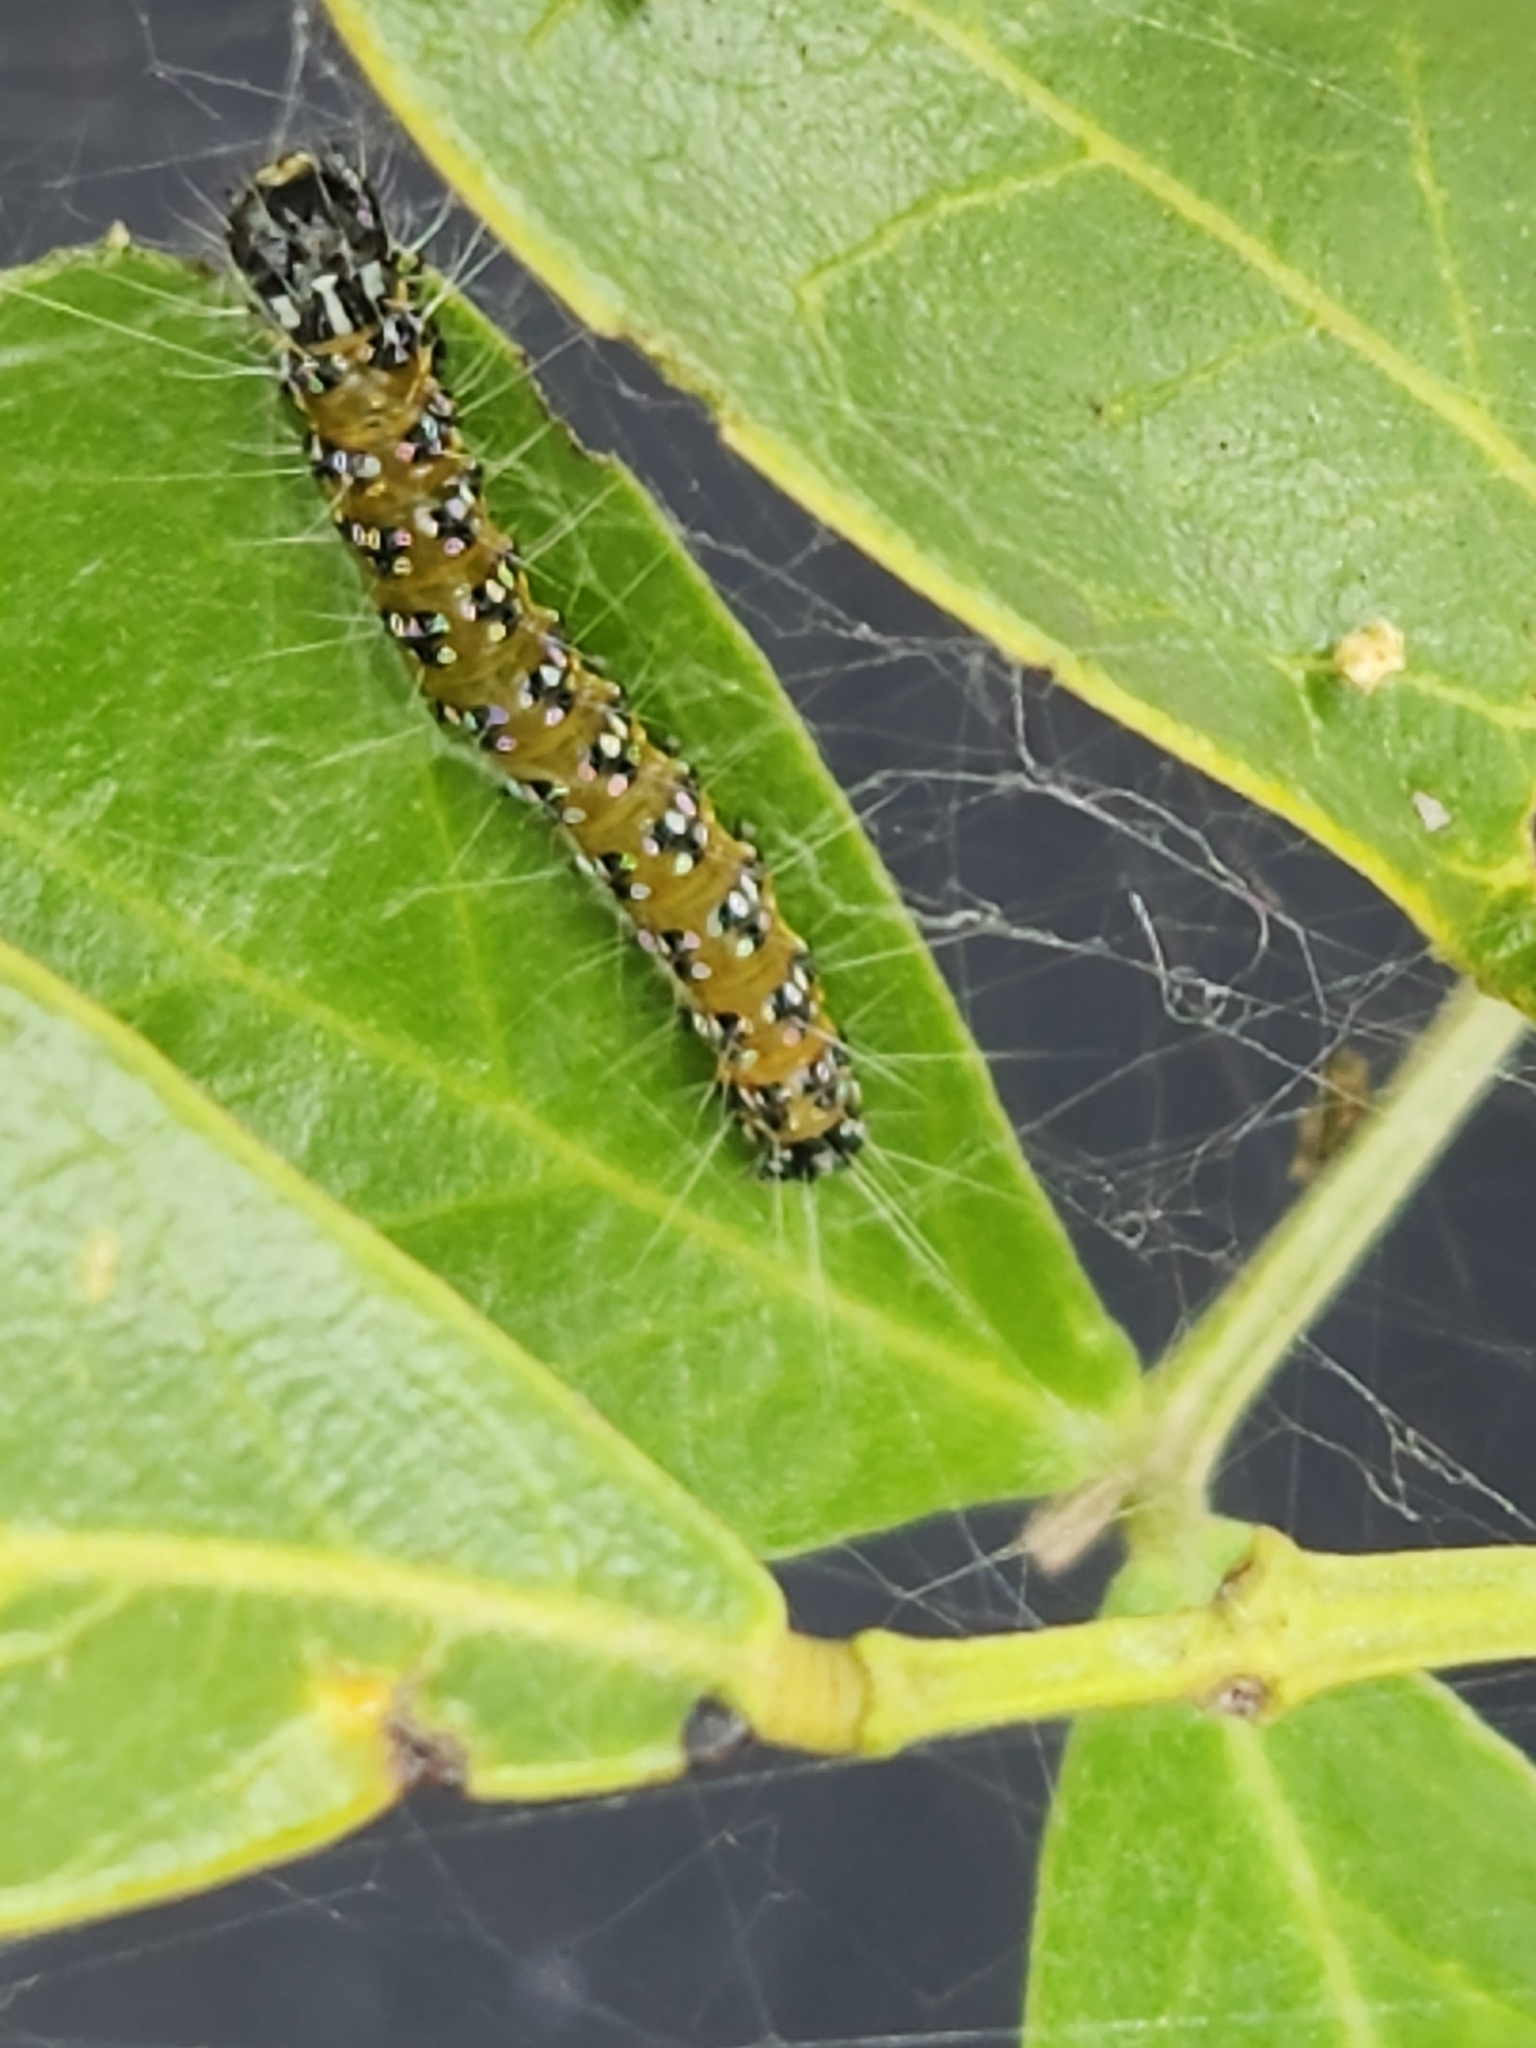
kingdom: Animalia
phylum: Arthropoda
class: Insecta
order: Lepidoptera
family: Crambidae
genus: Uresiphita
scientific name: Uresiphita reversalis
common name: Genista broom moth
